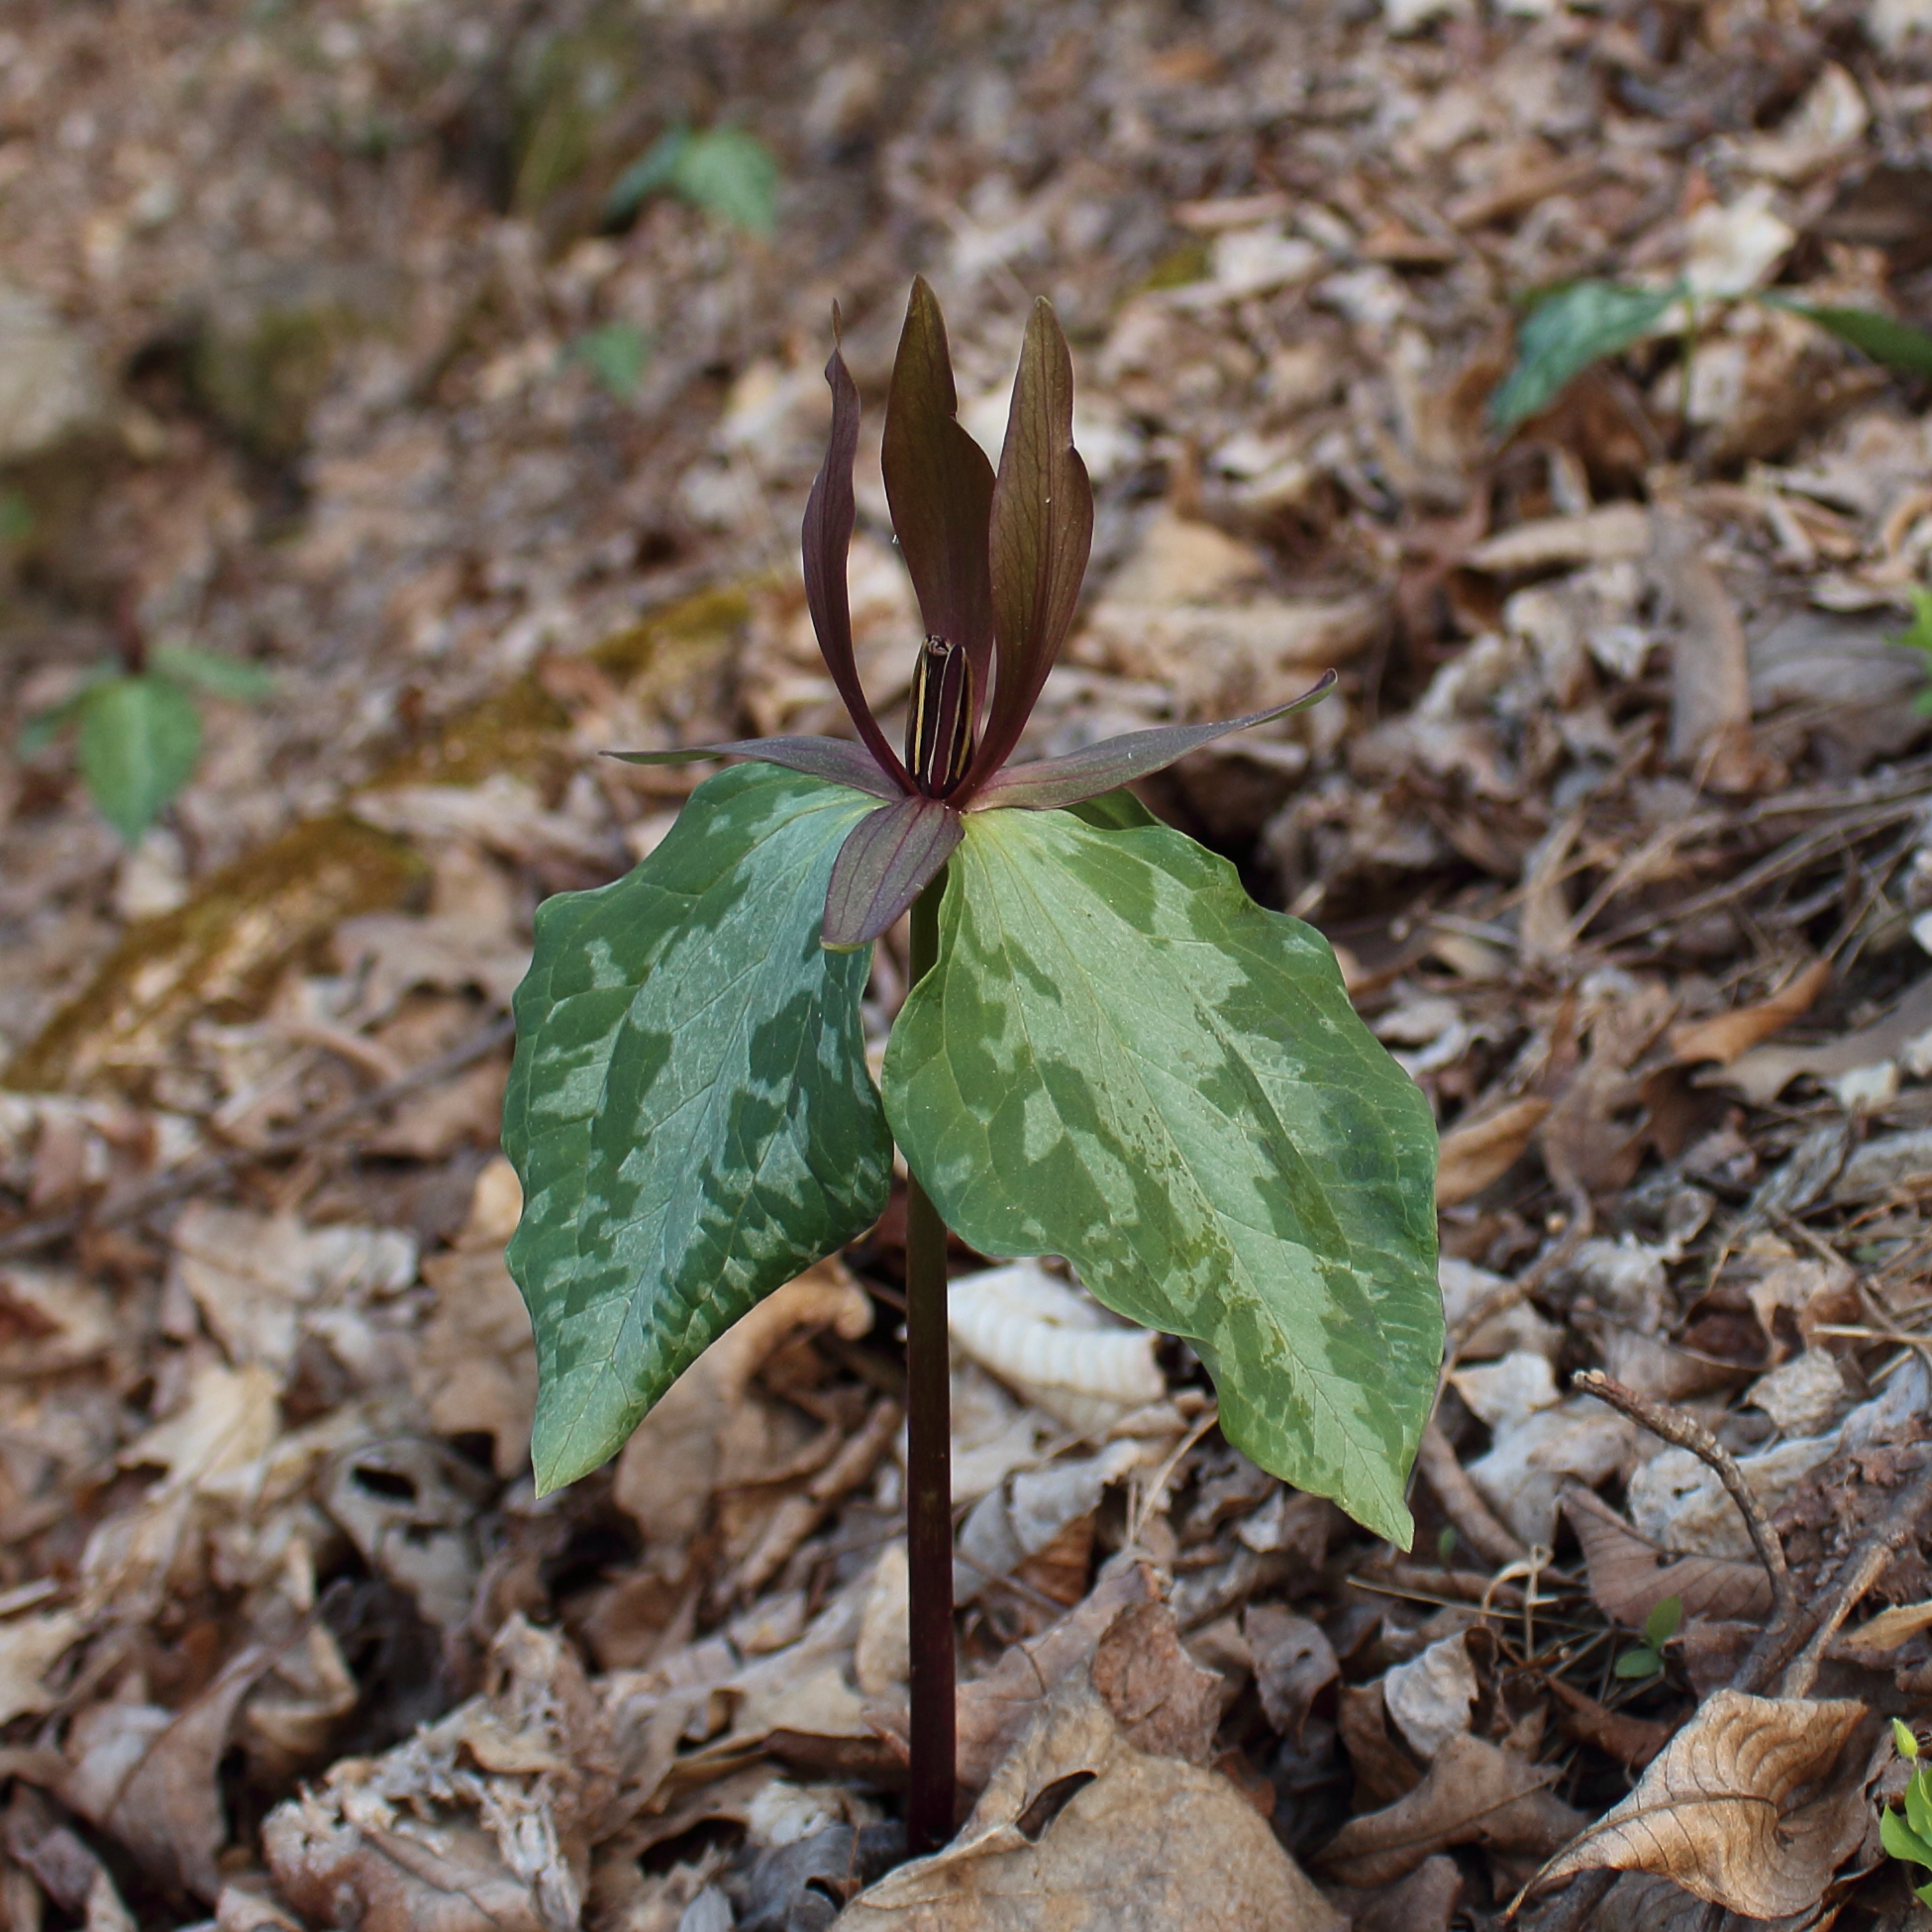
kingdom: Plantae
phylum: Tracheophyta
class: Liliopsida
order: Liliales
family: Melanthiaceae
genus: Trillium
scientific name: Trillium cuneatum
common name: Cuneate trillium
